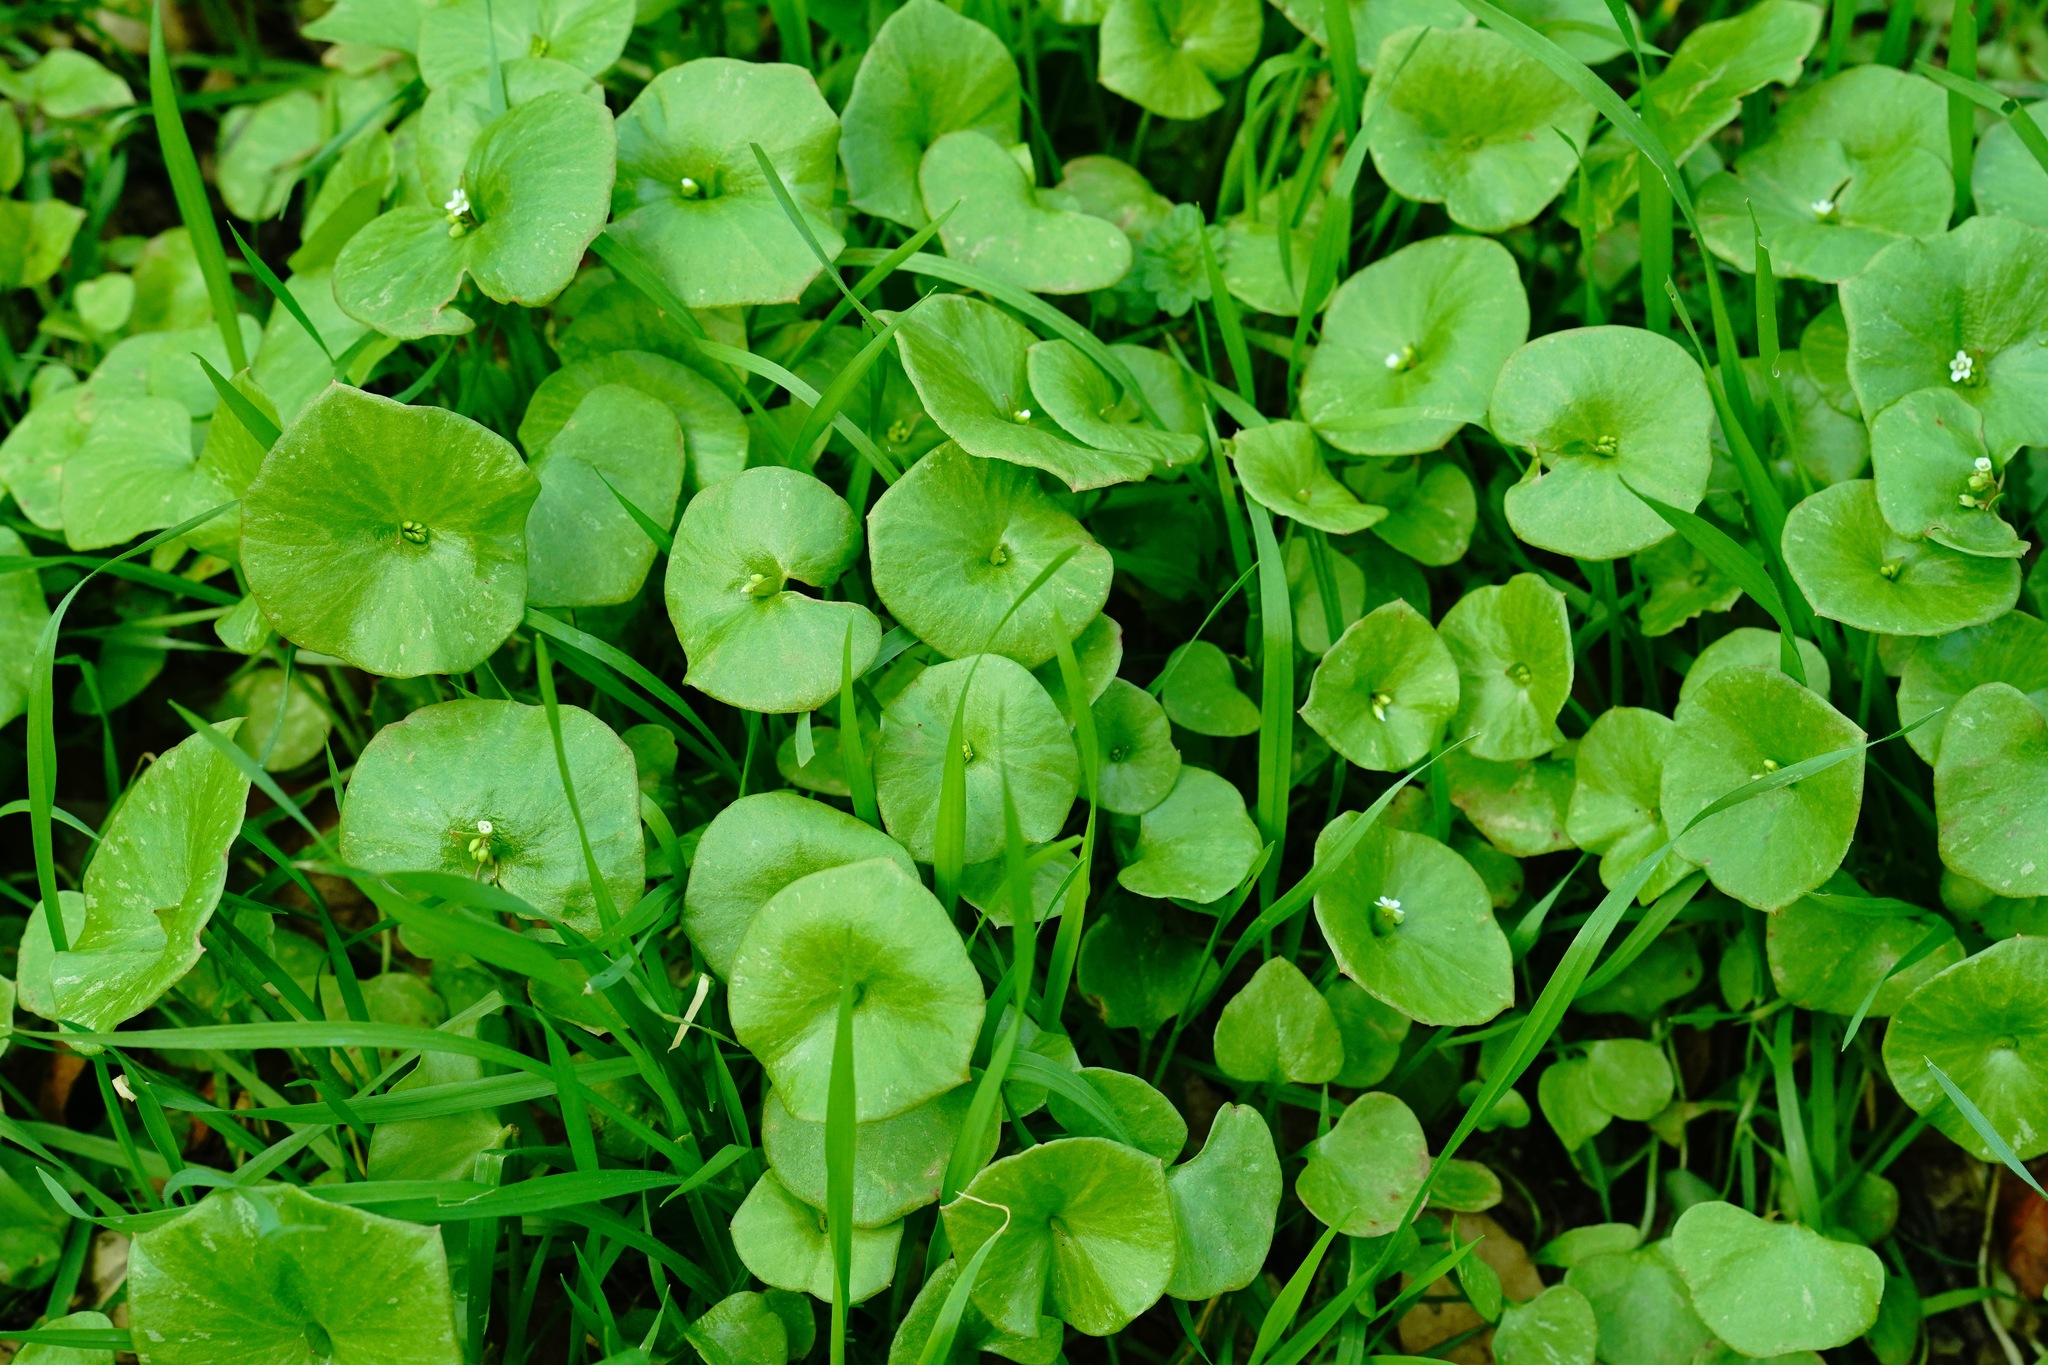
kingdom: Plantae
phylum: Tracheophyta
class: Magnoliopsida
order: Caryophyllales
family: Montiaceae
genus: Claytonia
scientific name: Claytonia perfoliata
